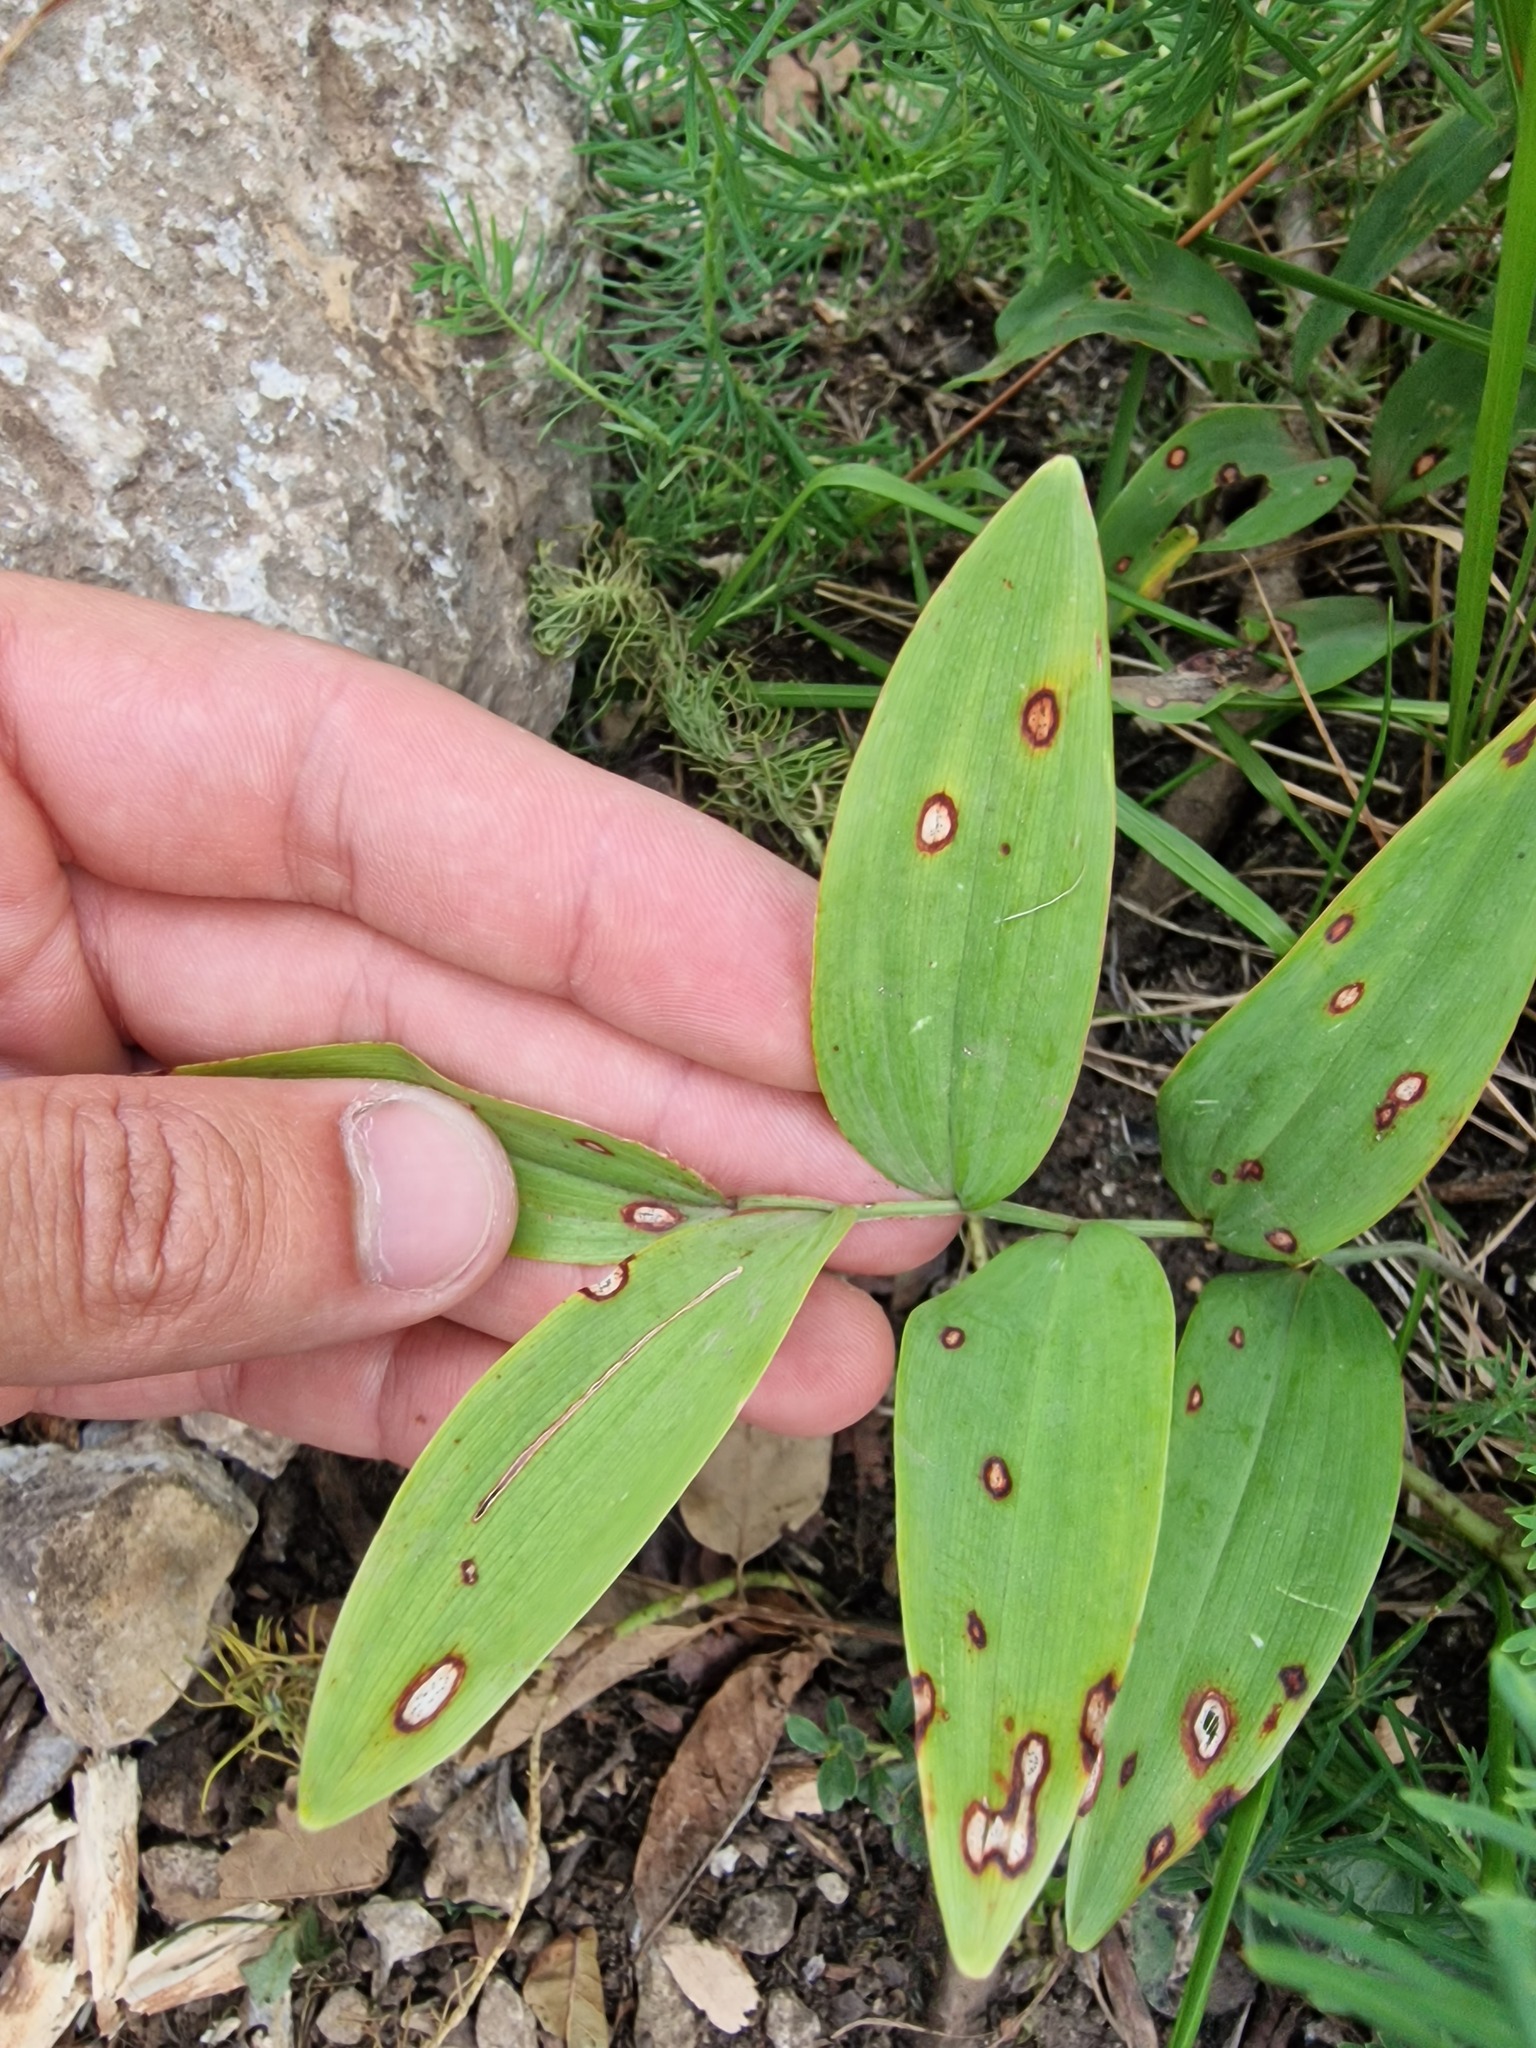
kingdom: Plantae
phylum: Tracheophyta
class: Liliopsida
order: Asparagales
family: Asparagaceae
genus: Polygonatum
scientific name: Polygonatum odoratum
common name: Angular solomon's-seal
